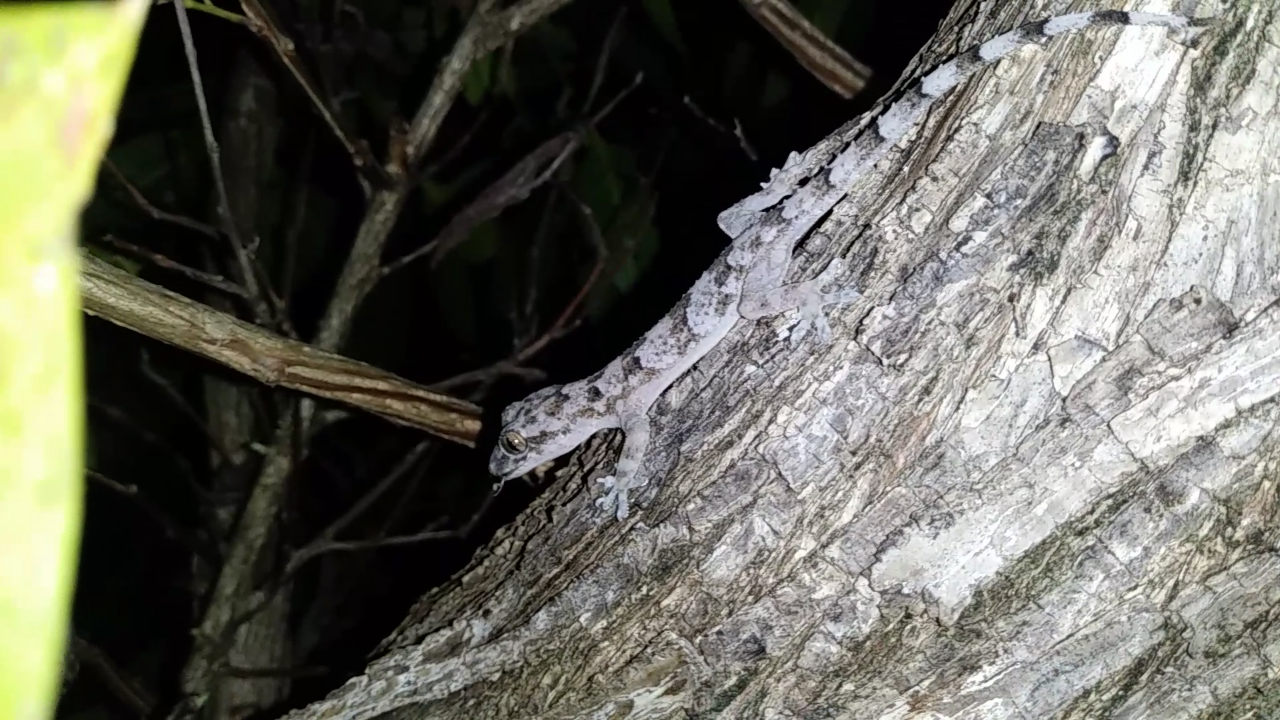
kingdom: Animalia
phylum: Chordata
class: Squamata
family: Gekkonidae
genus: Hemidactylus
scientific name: Hemidactylus mabouia
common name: House gecko
